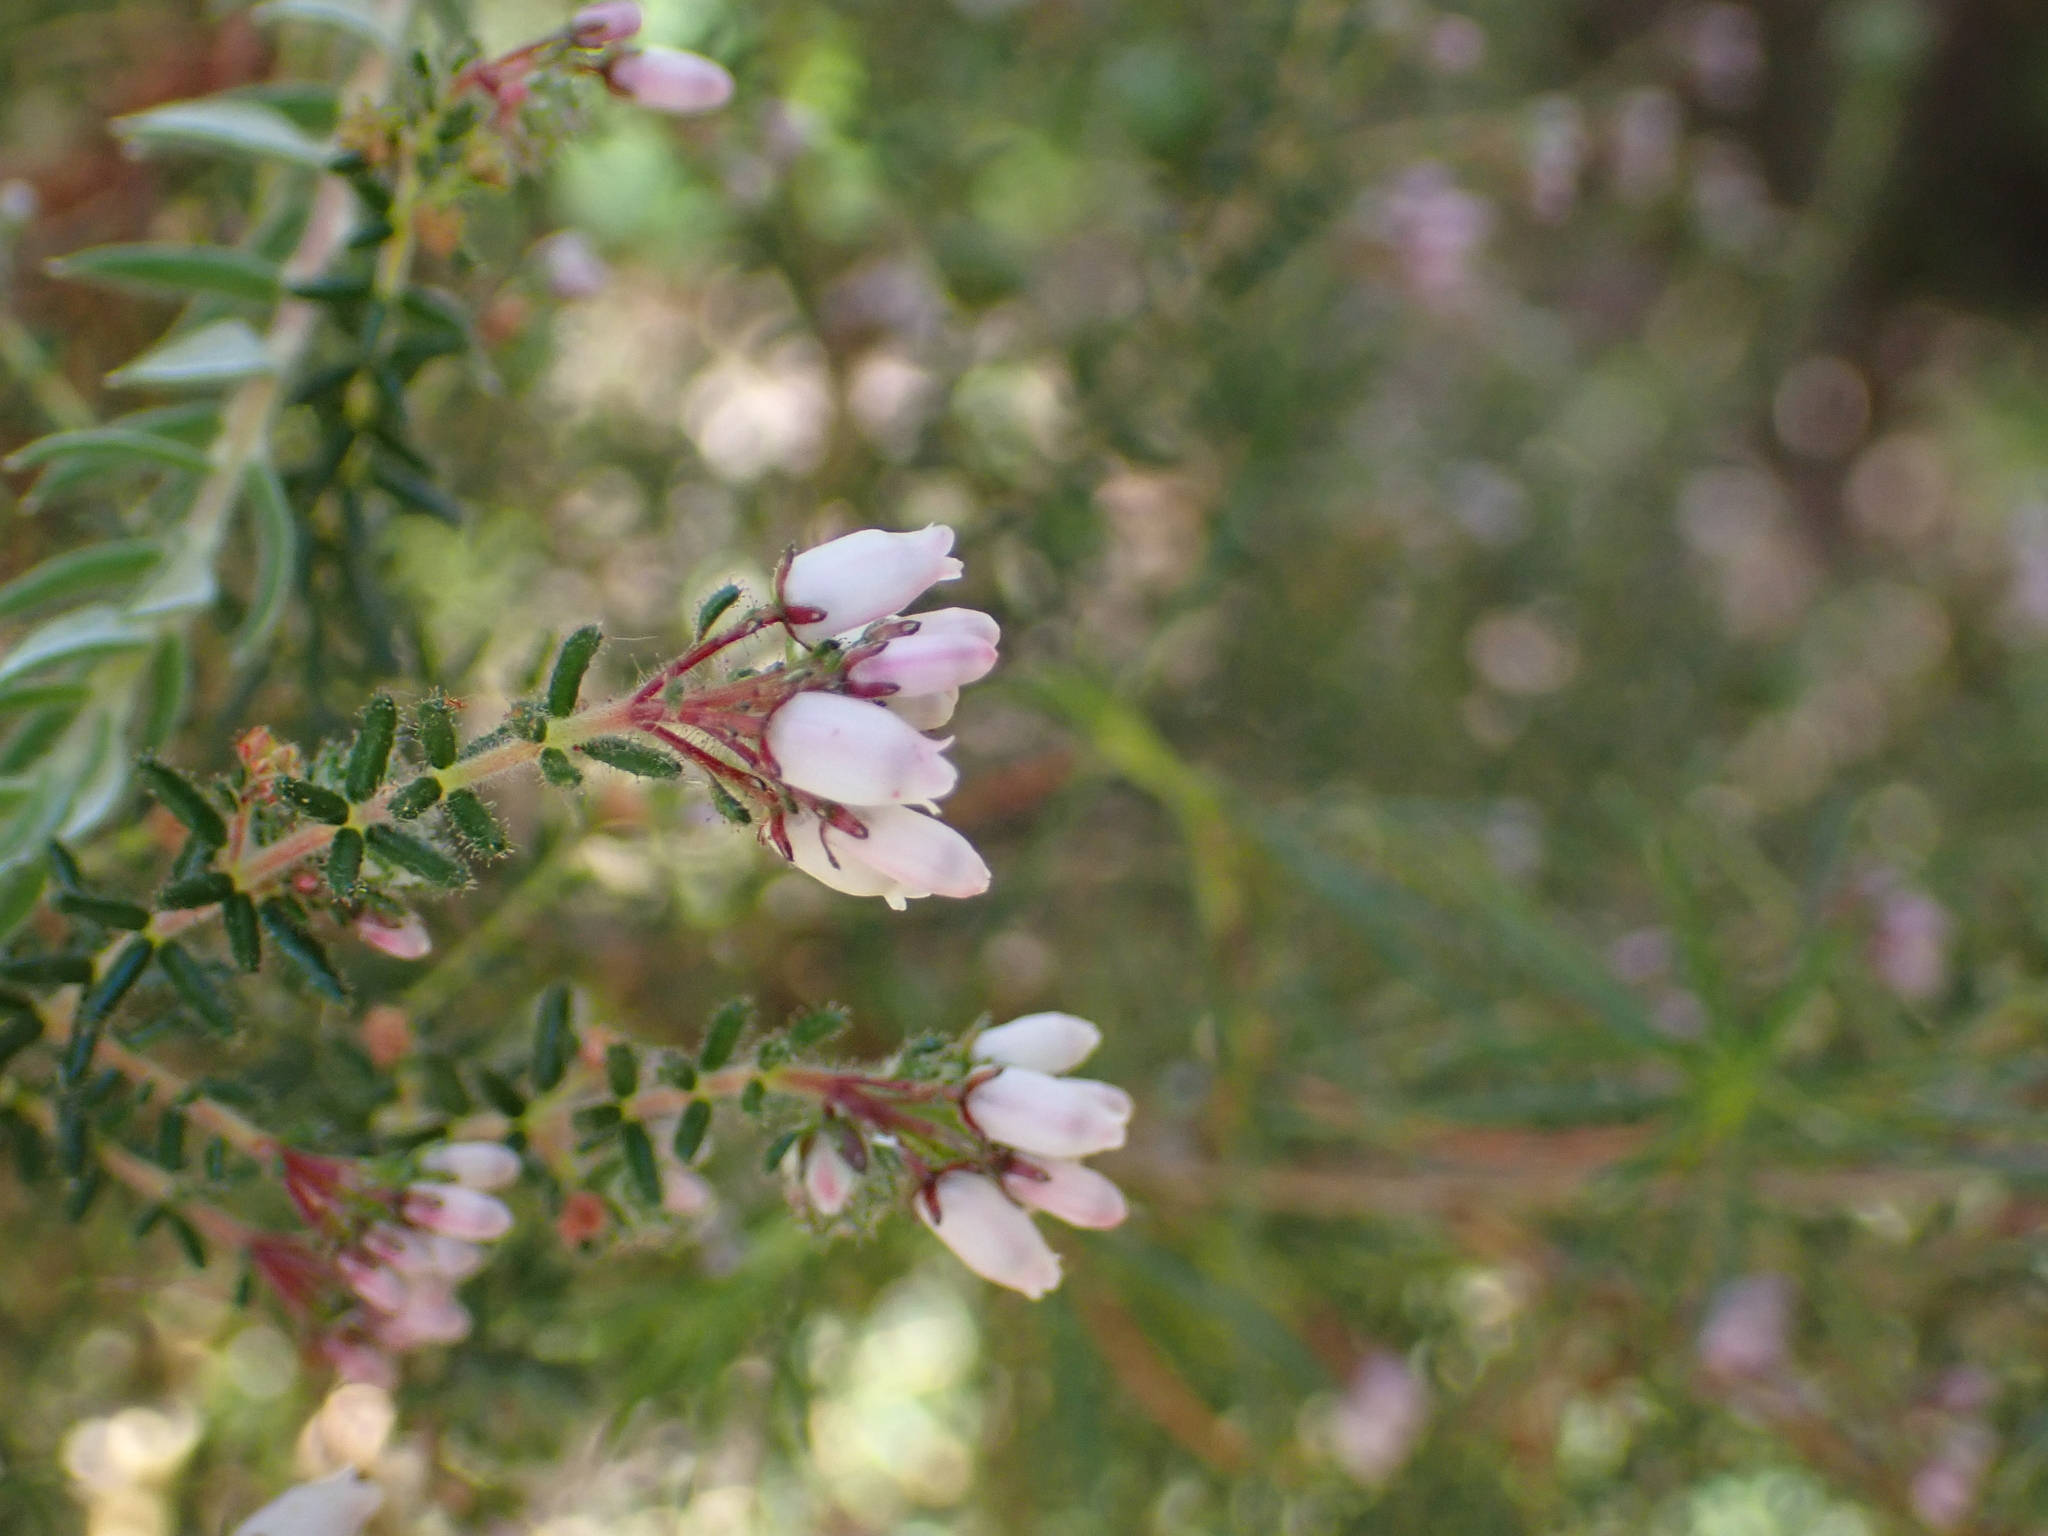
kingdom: Plantae
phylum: Tracheophyta
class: Magnoliopsida
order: Ericales
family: Ericaceae
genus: Erica
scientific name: Erica scabriuscula
